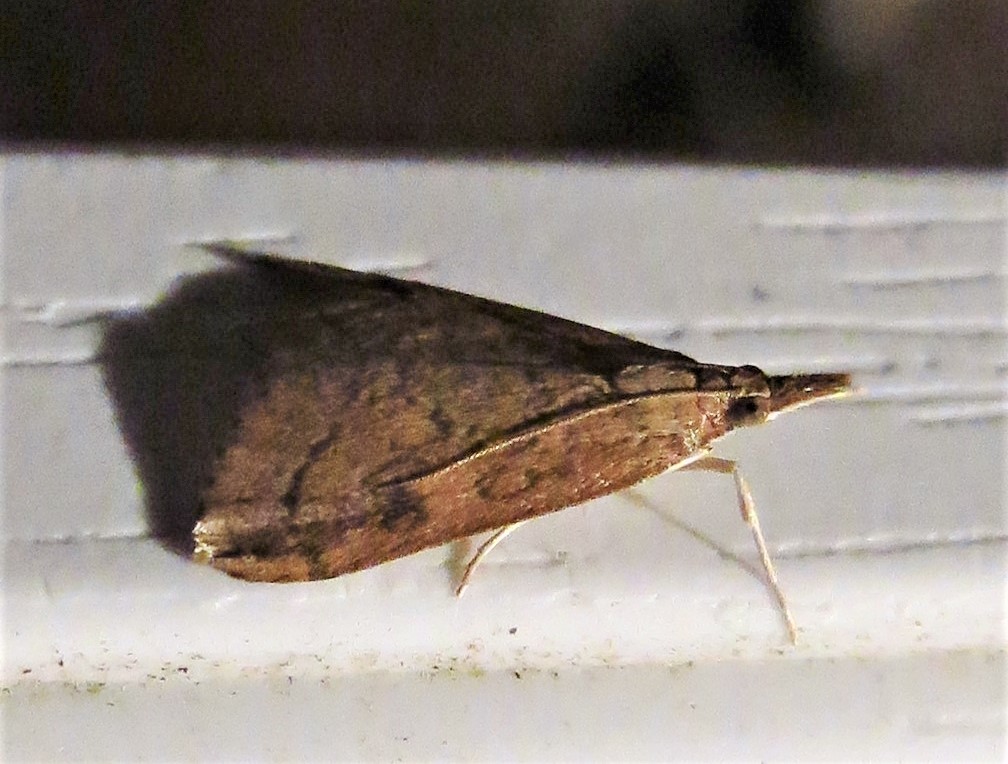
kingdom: Animalia
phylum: Arthropoda
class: Insecta
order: Lepidoptera
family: Crambidae
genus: Udea
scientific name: Udea rubigalis
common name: Celery leaftier moth
